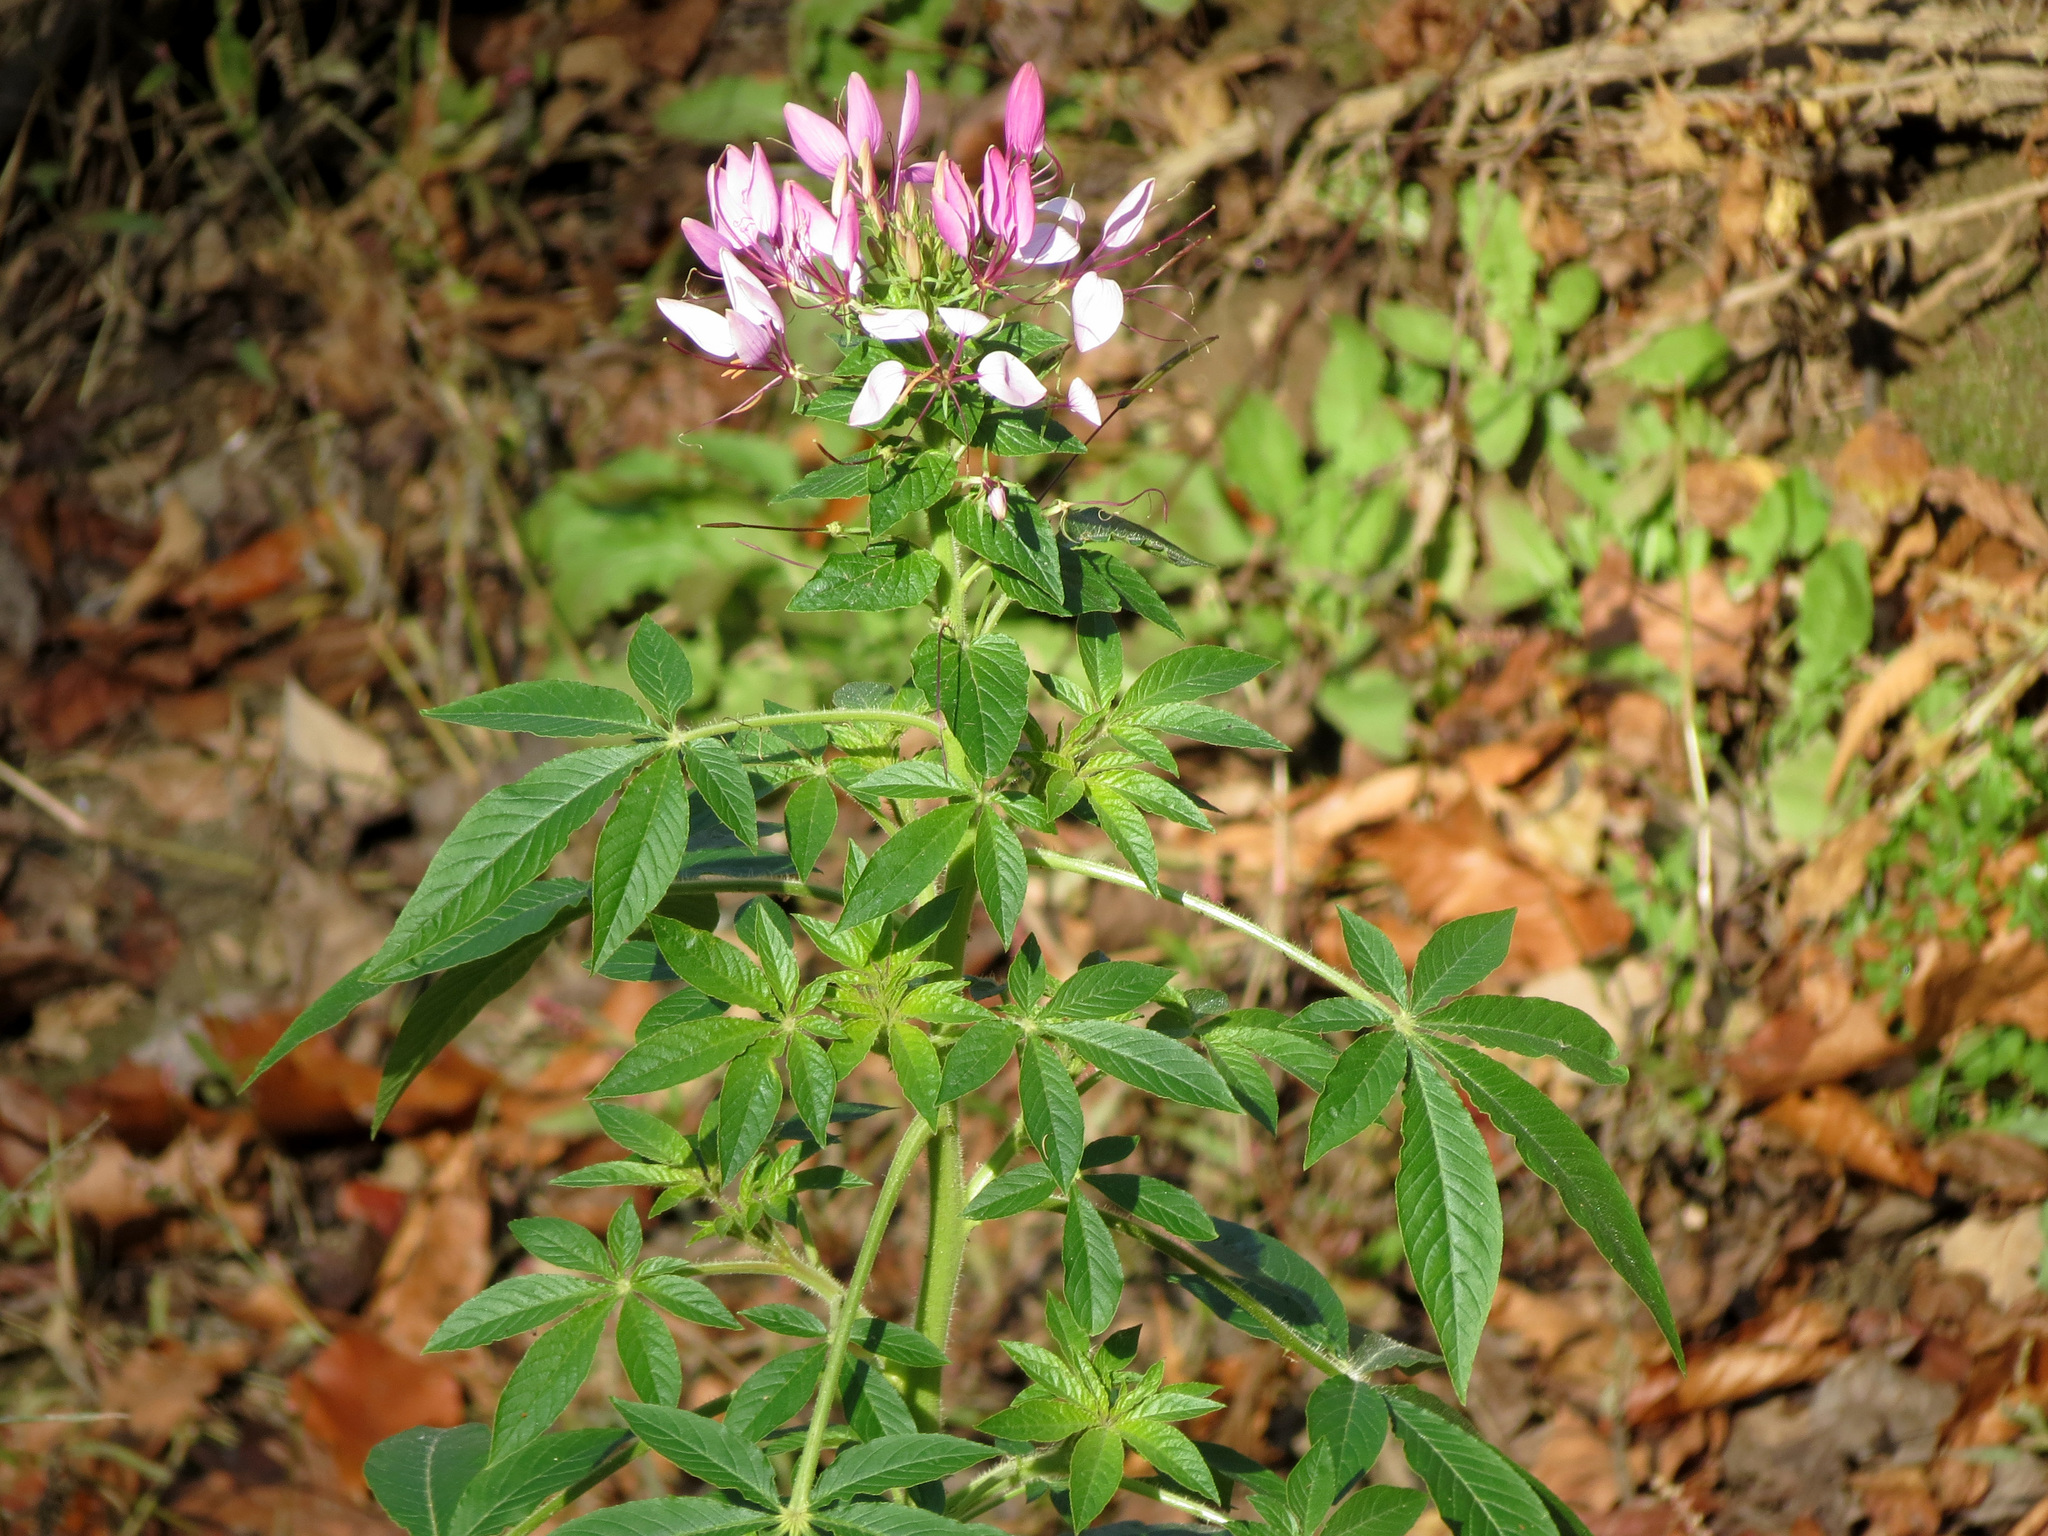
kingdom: Plantae
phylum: Tracheophyta
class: Magnoliopsida
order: Brassicales
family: Cleomaceae
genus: Tarenaya
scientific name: Tarenaya houtteana
